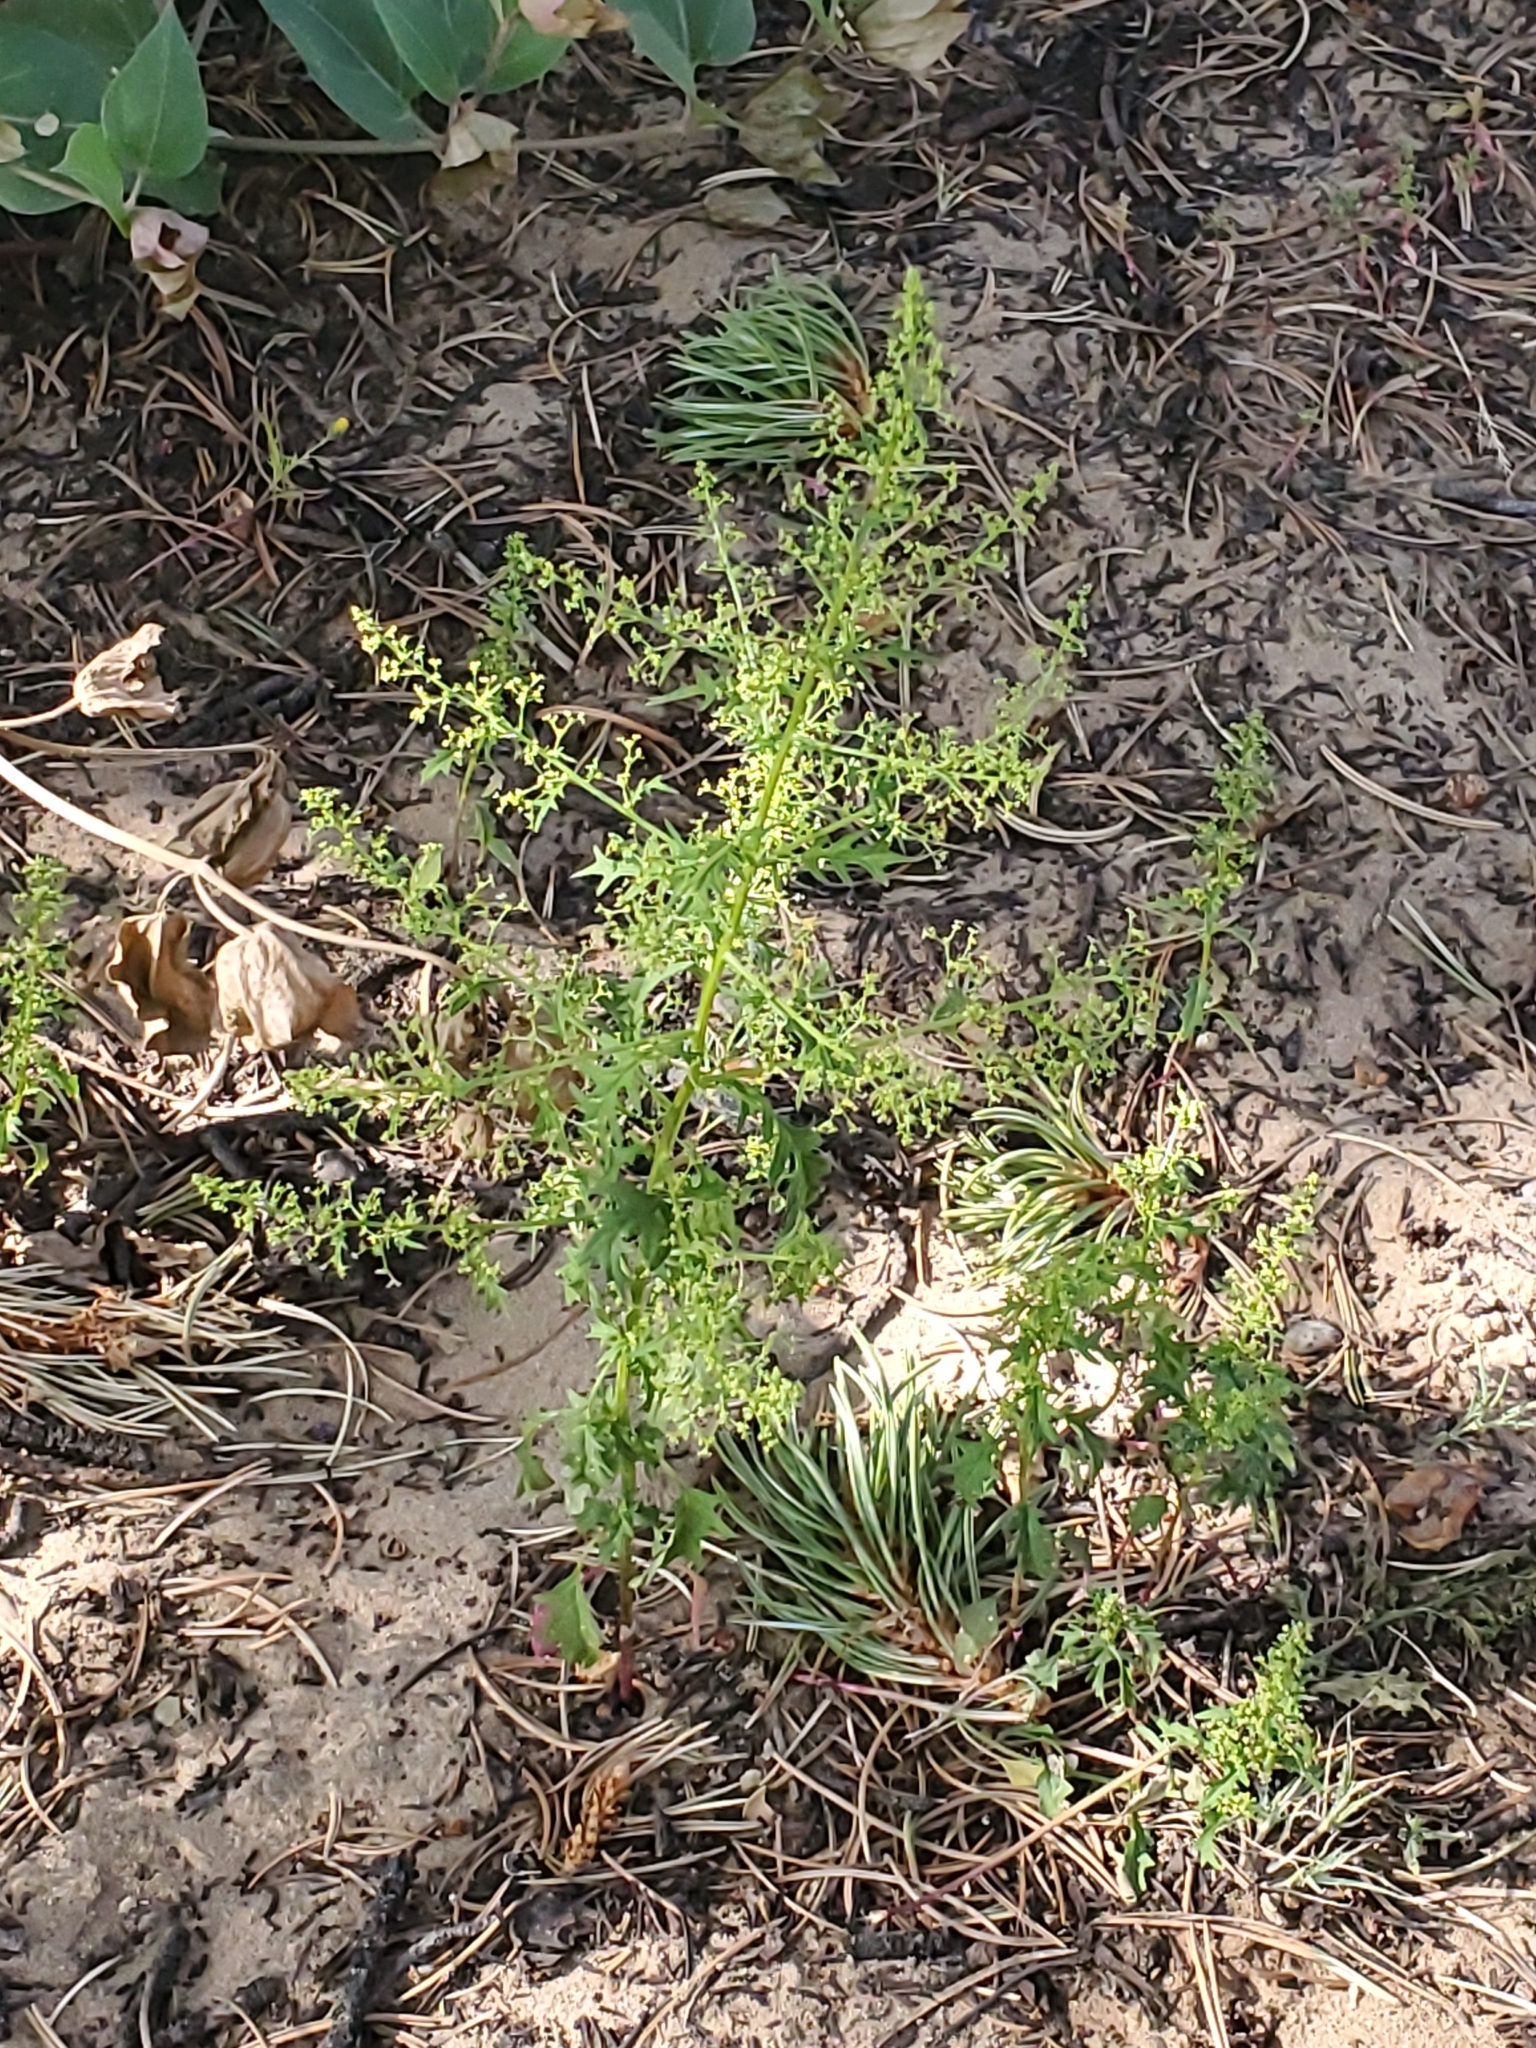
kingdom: Plantae
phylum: Tracheophyta
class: Magnoliopsida
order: Caryophyllales
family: Amaranthaceae
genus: Dysphania
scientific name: Dysphania incisa
